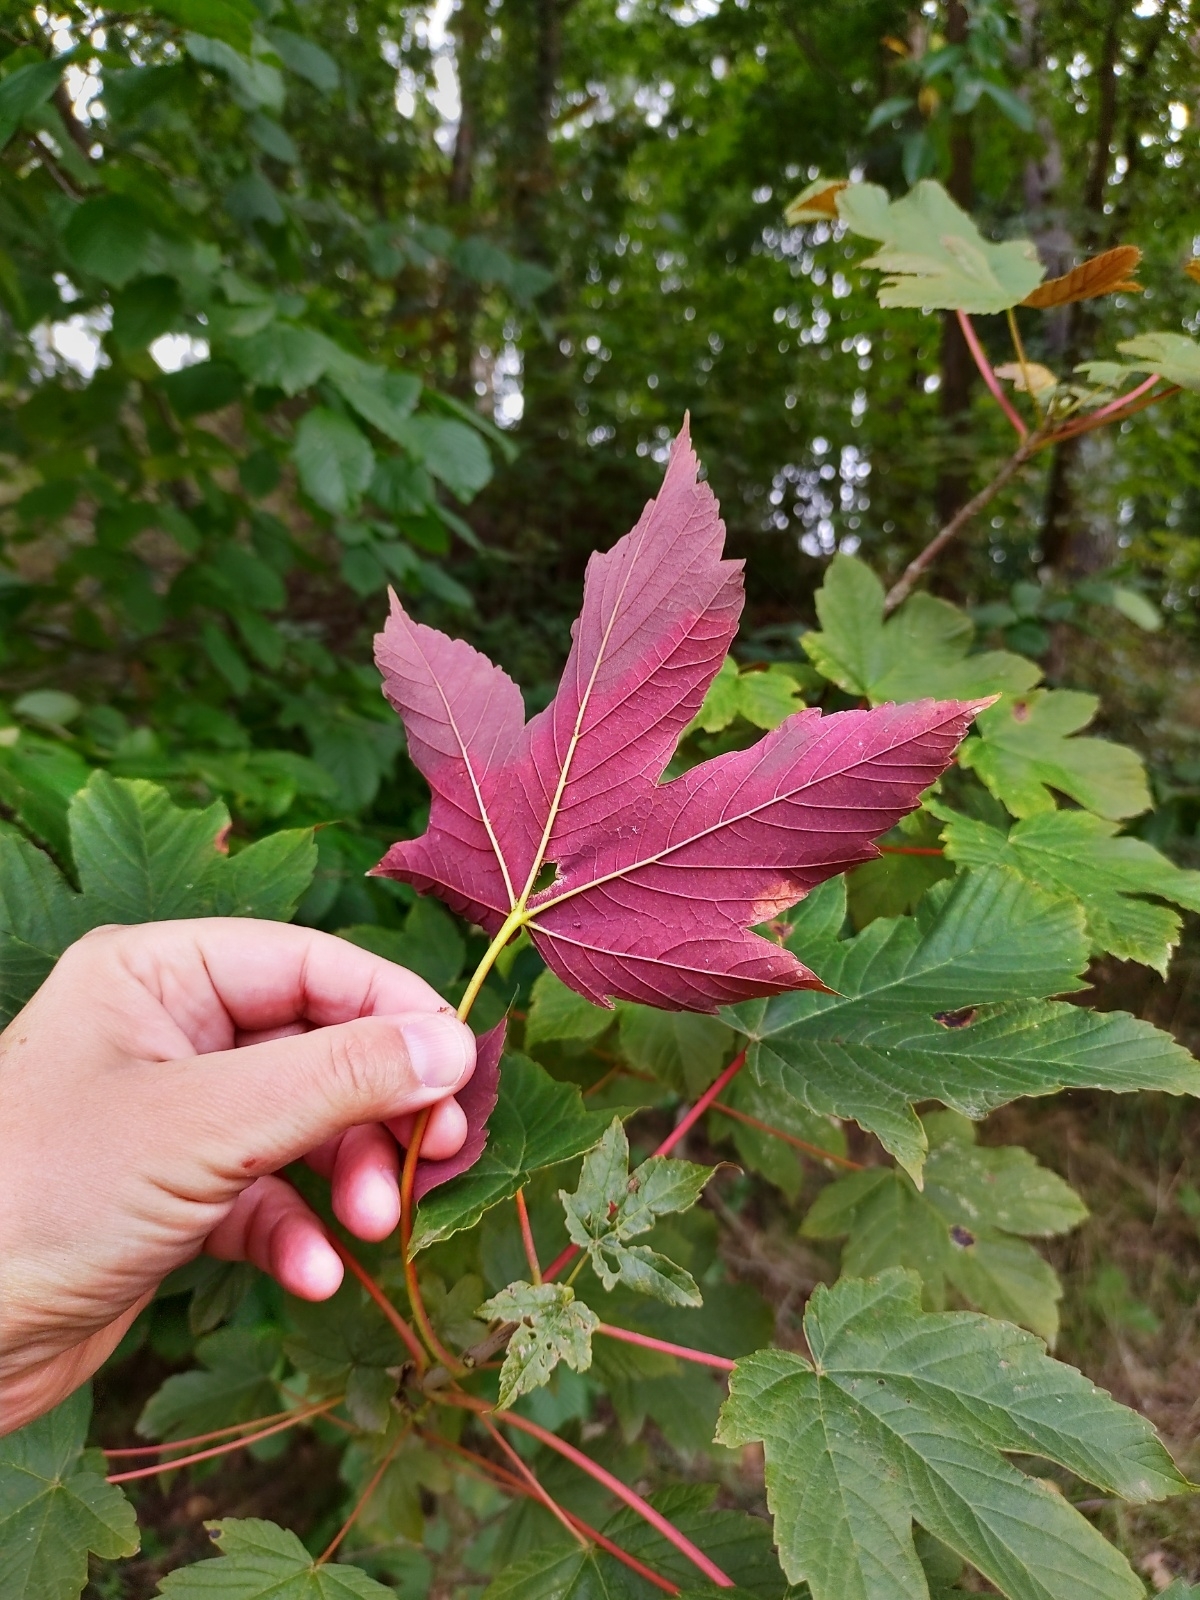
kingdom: Plantae
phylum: Tracheophyta
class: Magnoliopsida
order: Sapindales
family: Sapindaceae
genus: Acer
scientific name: Acer pseudoplatanus
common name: Sycamore
